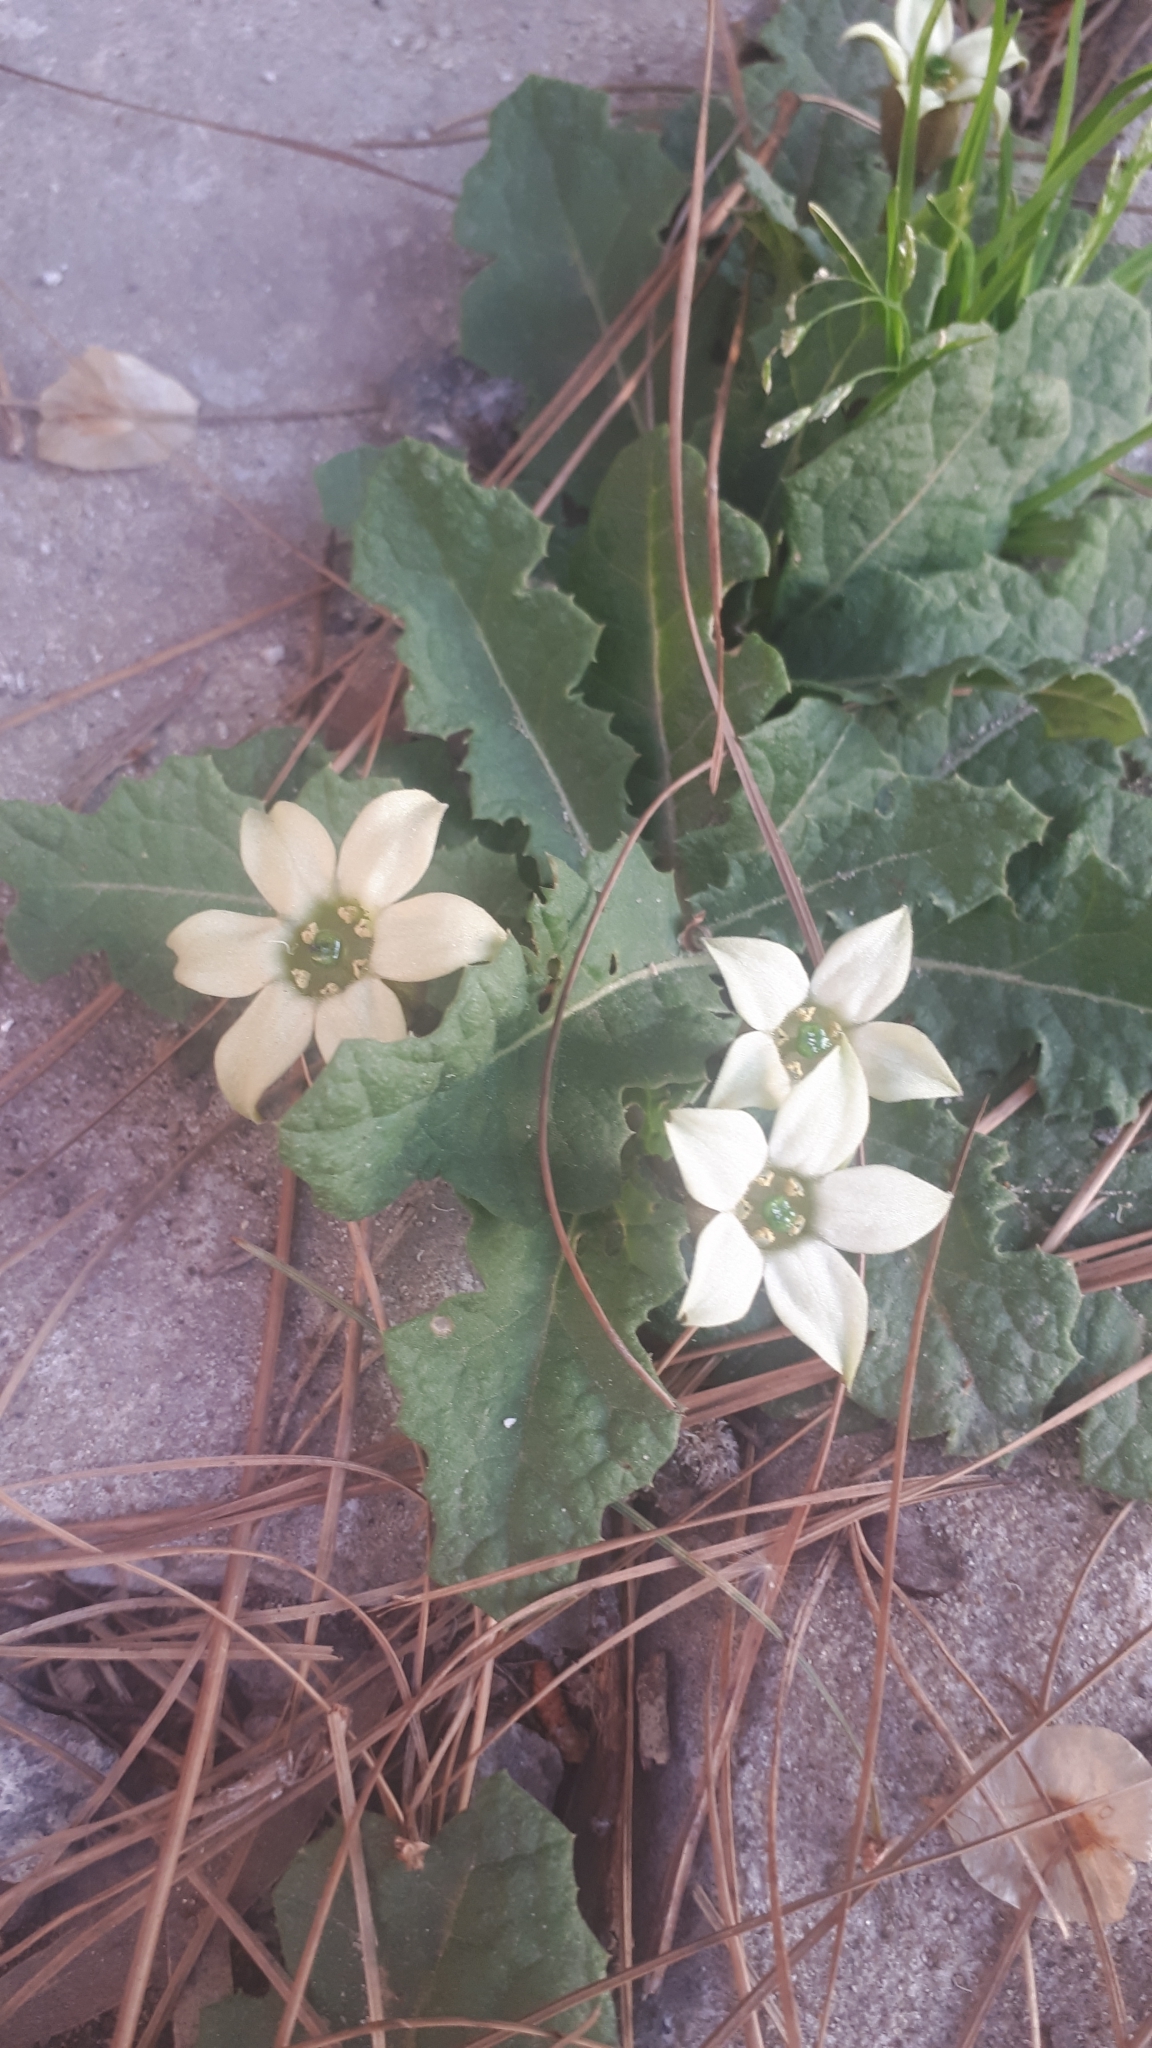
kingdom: Plantae
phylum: Tracheophyta
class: Magnoliopsida
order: Solanales
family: Solanaceae
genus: Jaborosa
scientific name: Jaborosa runcinata
